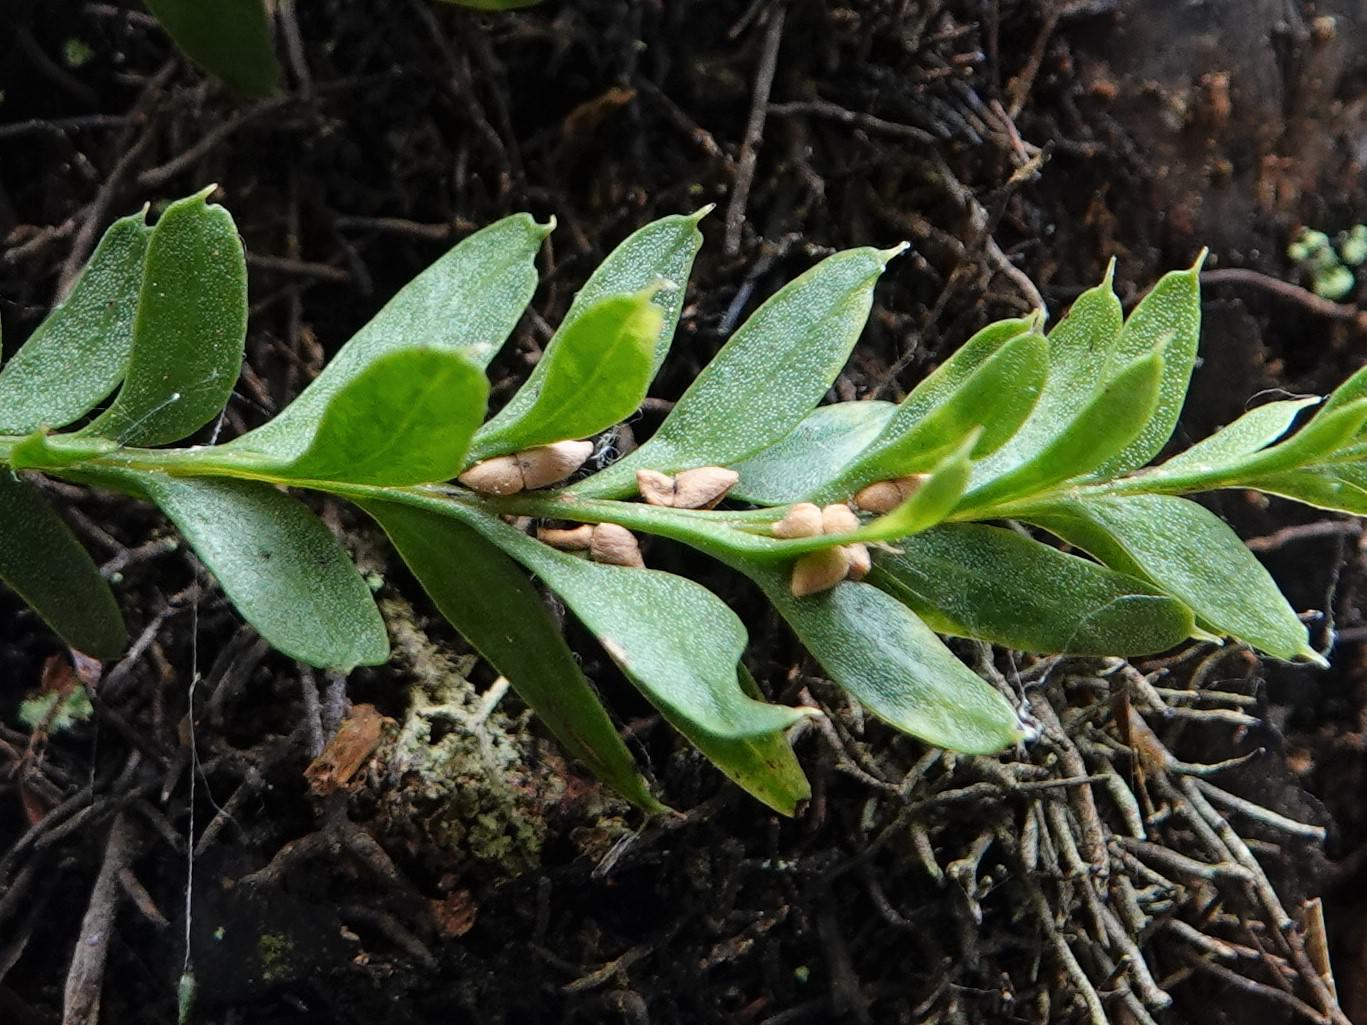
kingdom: Plantae
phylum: Tracheophyta
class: Polypodiopsida
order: Psilotales
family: Psilotaceae
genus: Tmesipteris
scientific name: Tmesipteris tannensis
